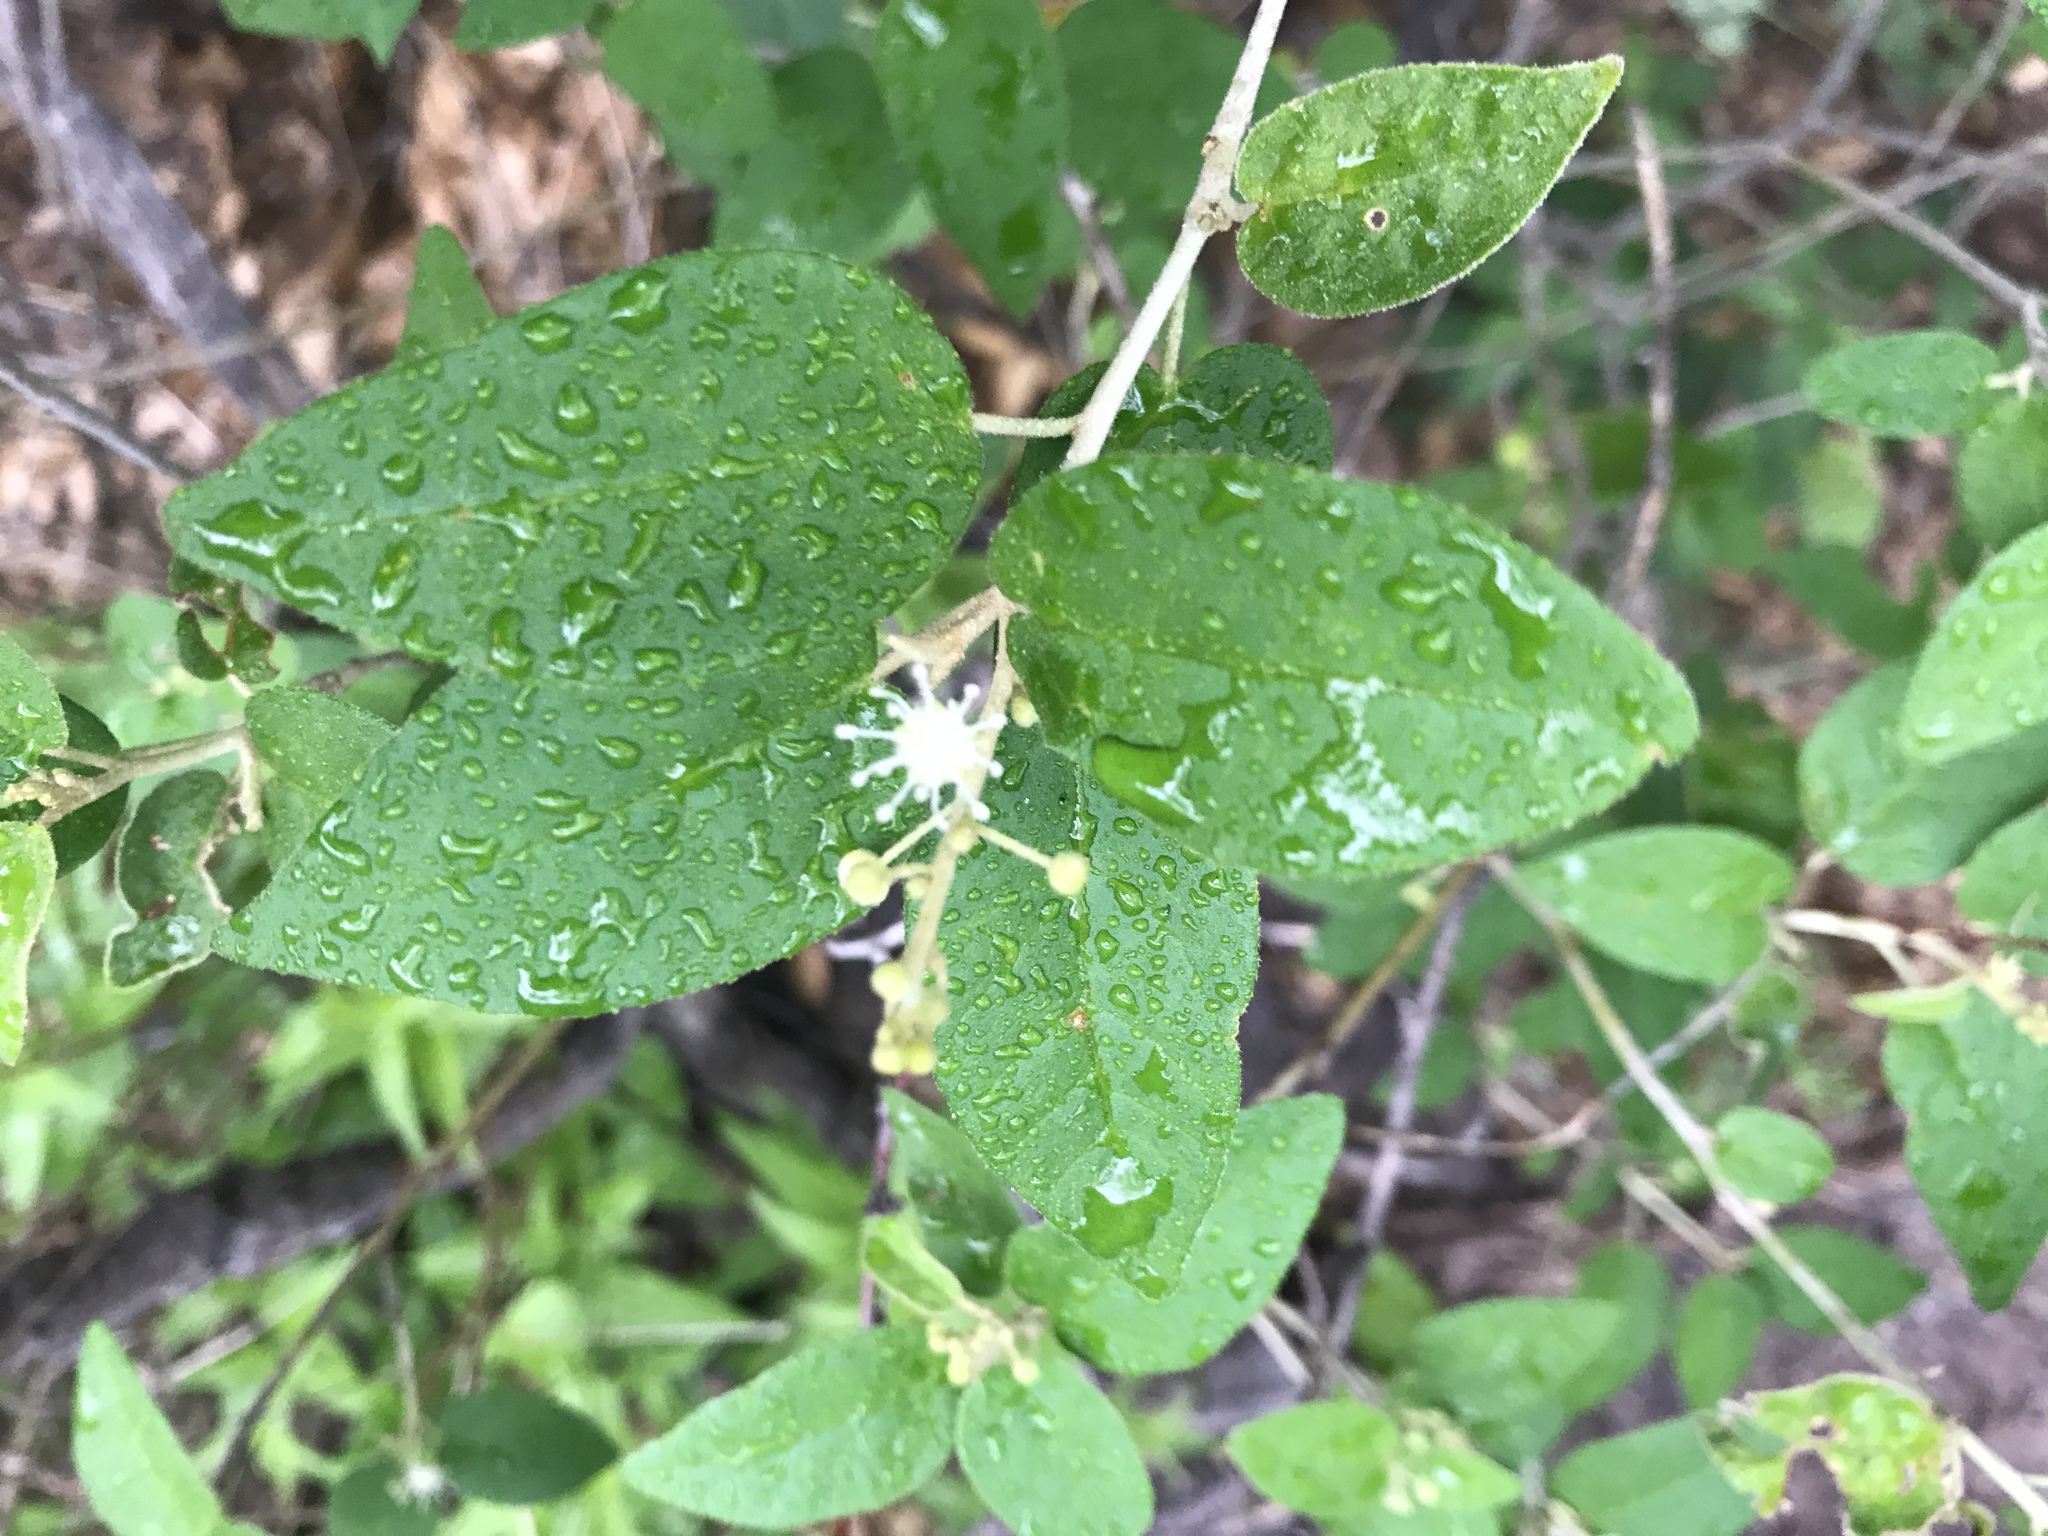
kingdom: Plantae
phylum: Tracheophyta
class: Magnoliopsida
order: Malpighiales
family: Euphorbiaceae
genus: Croton
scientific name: Croton fruticulosus
